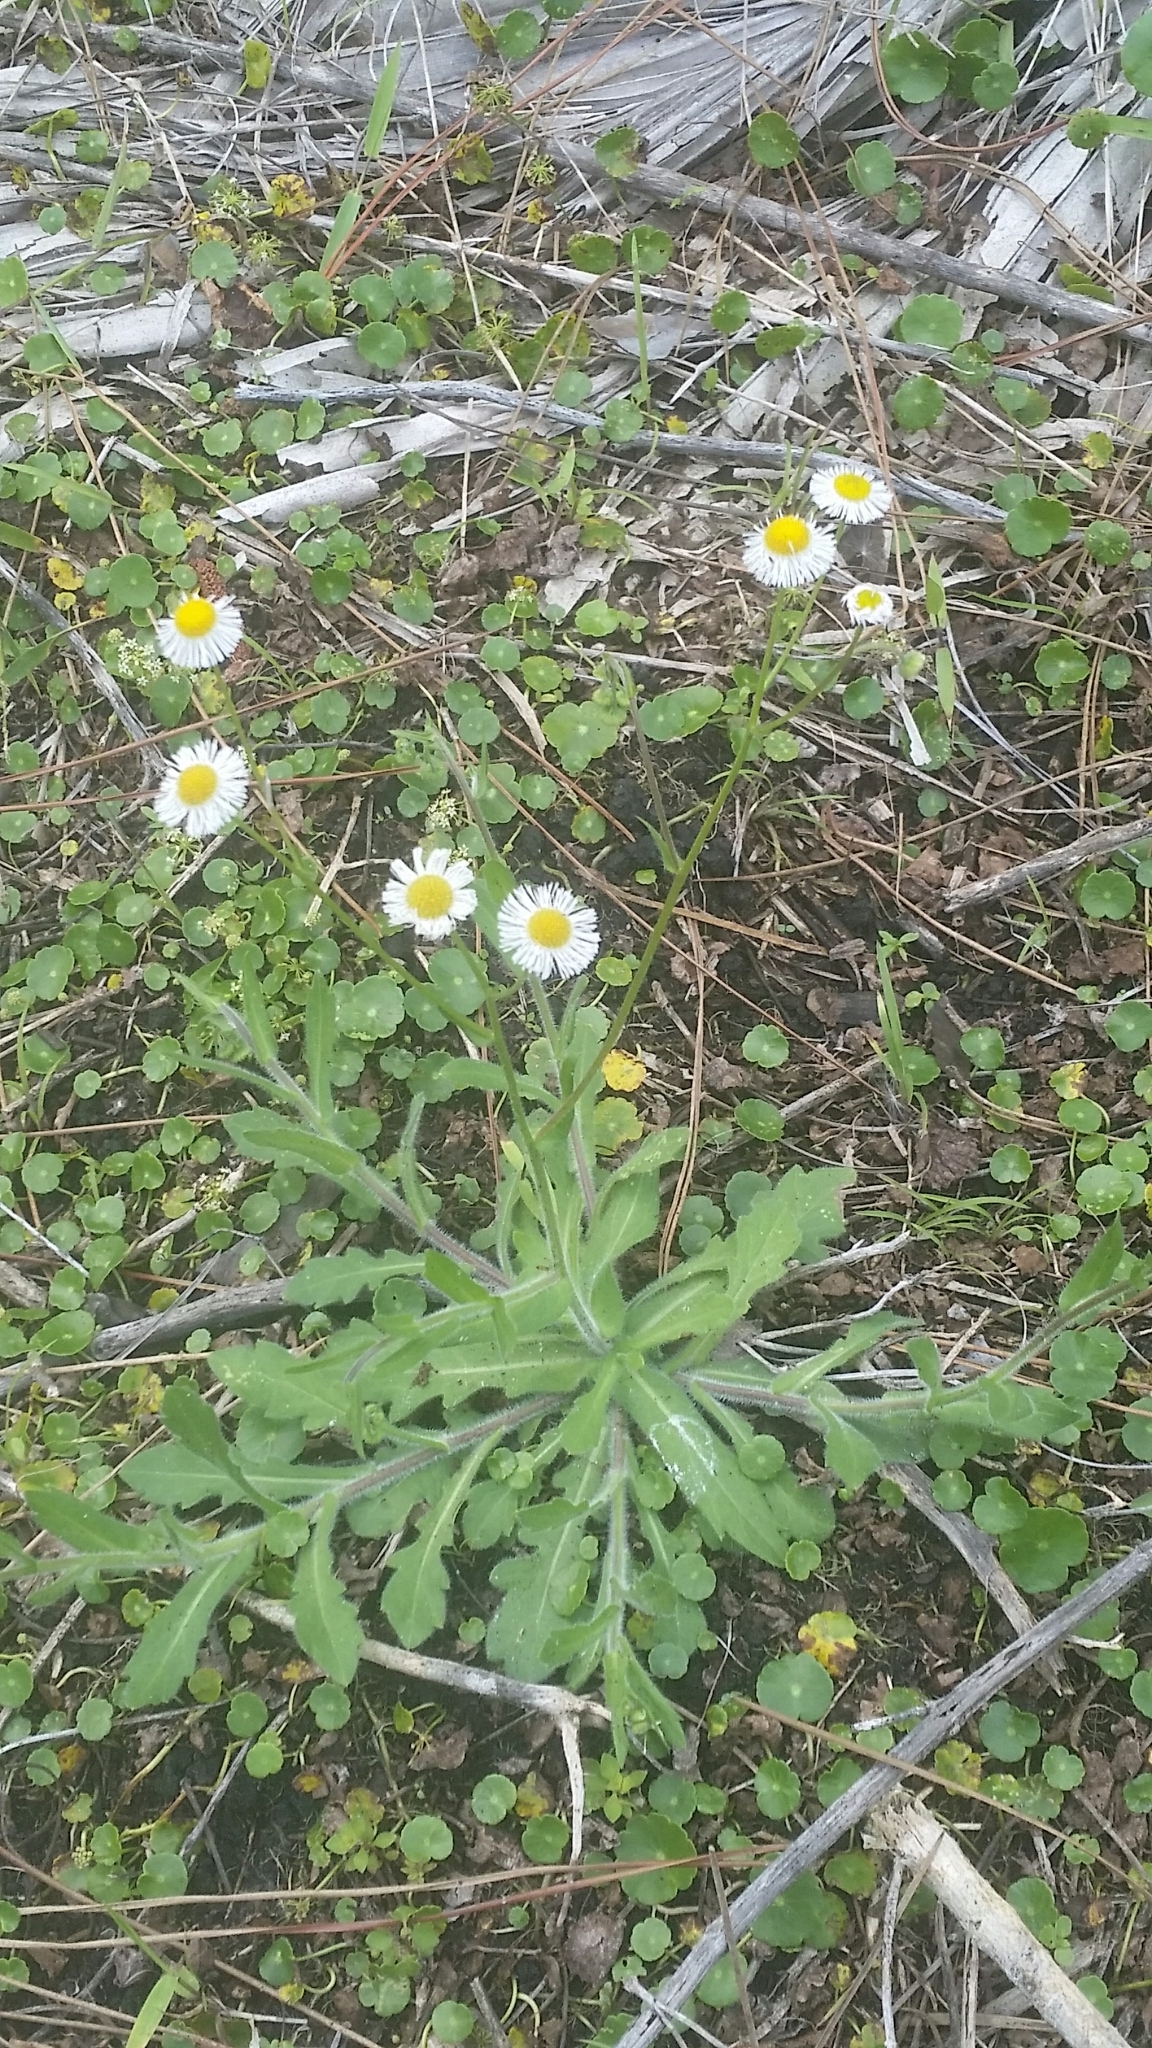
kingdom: Plantae
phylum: Tracheophyta
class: Magnoliopsida
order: Asterales
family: Asteraceae
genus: Erigeron
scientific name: Erigeron quercifolius
